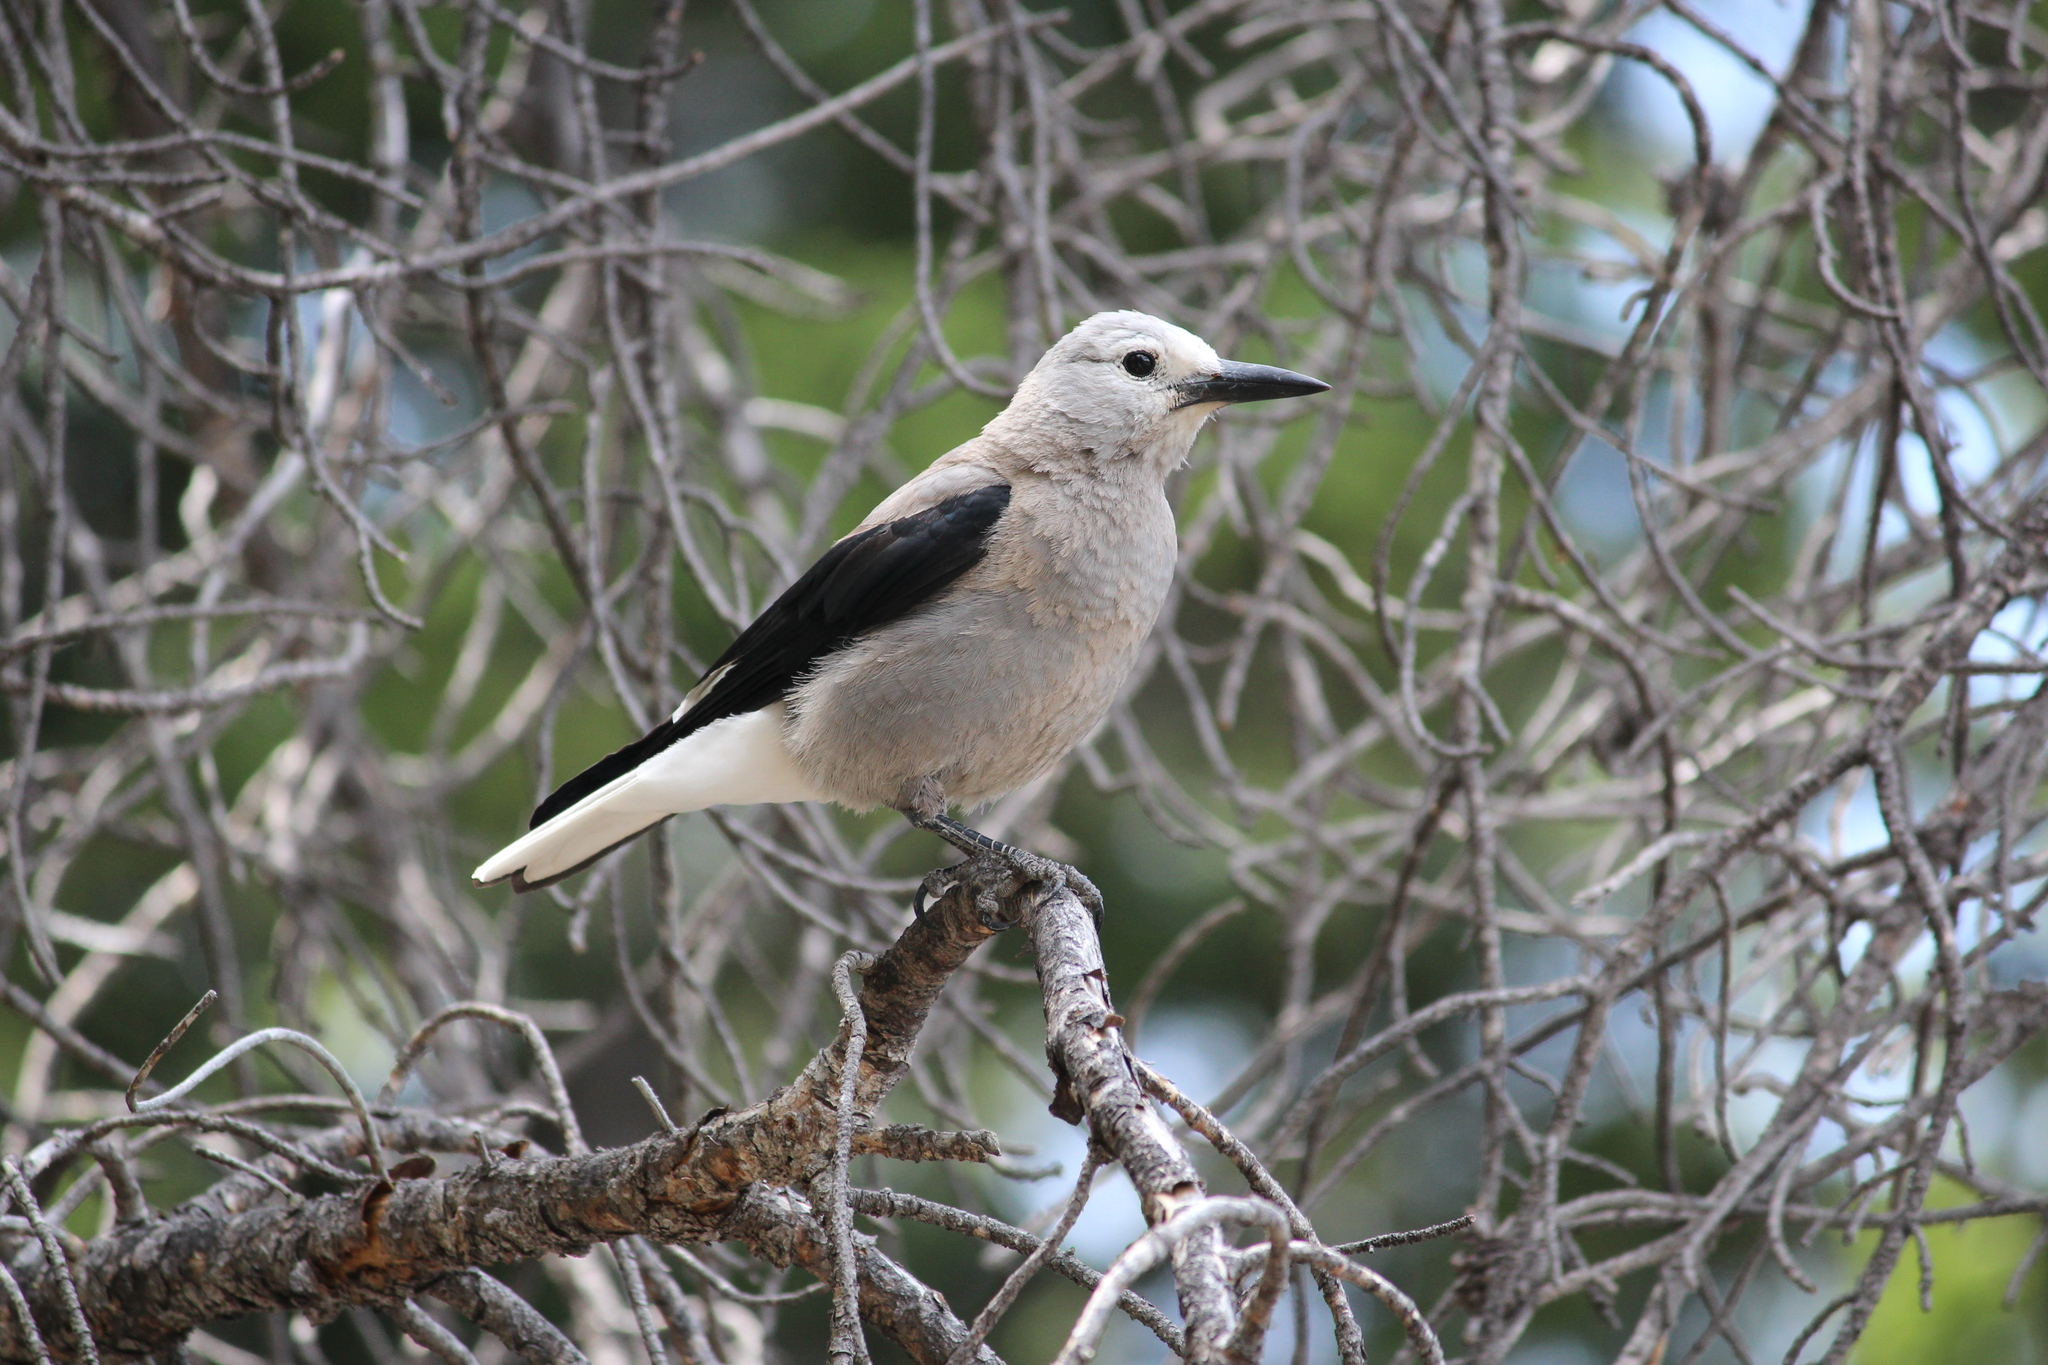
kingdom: Animalia
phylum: Chordata
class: Aves
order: Passeriformes
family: Corvidae
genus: Nucifraga
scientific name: Nucifraga columbiana
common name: Clark's nutcracker
